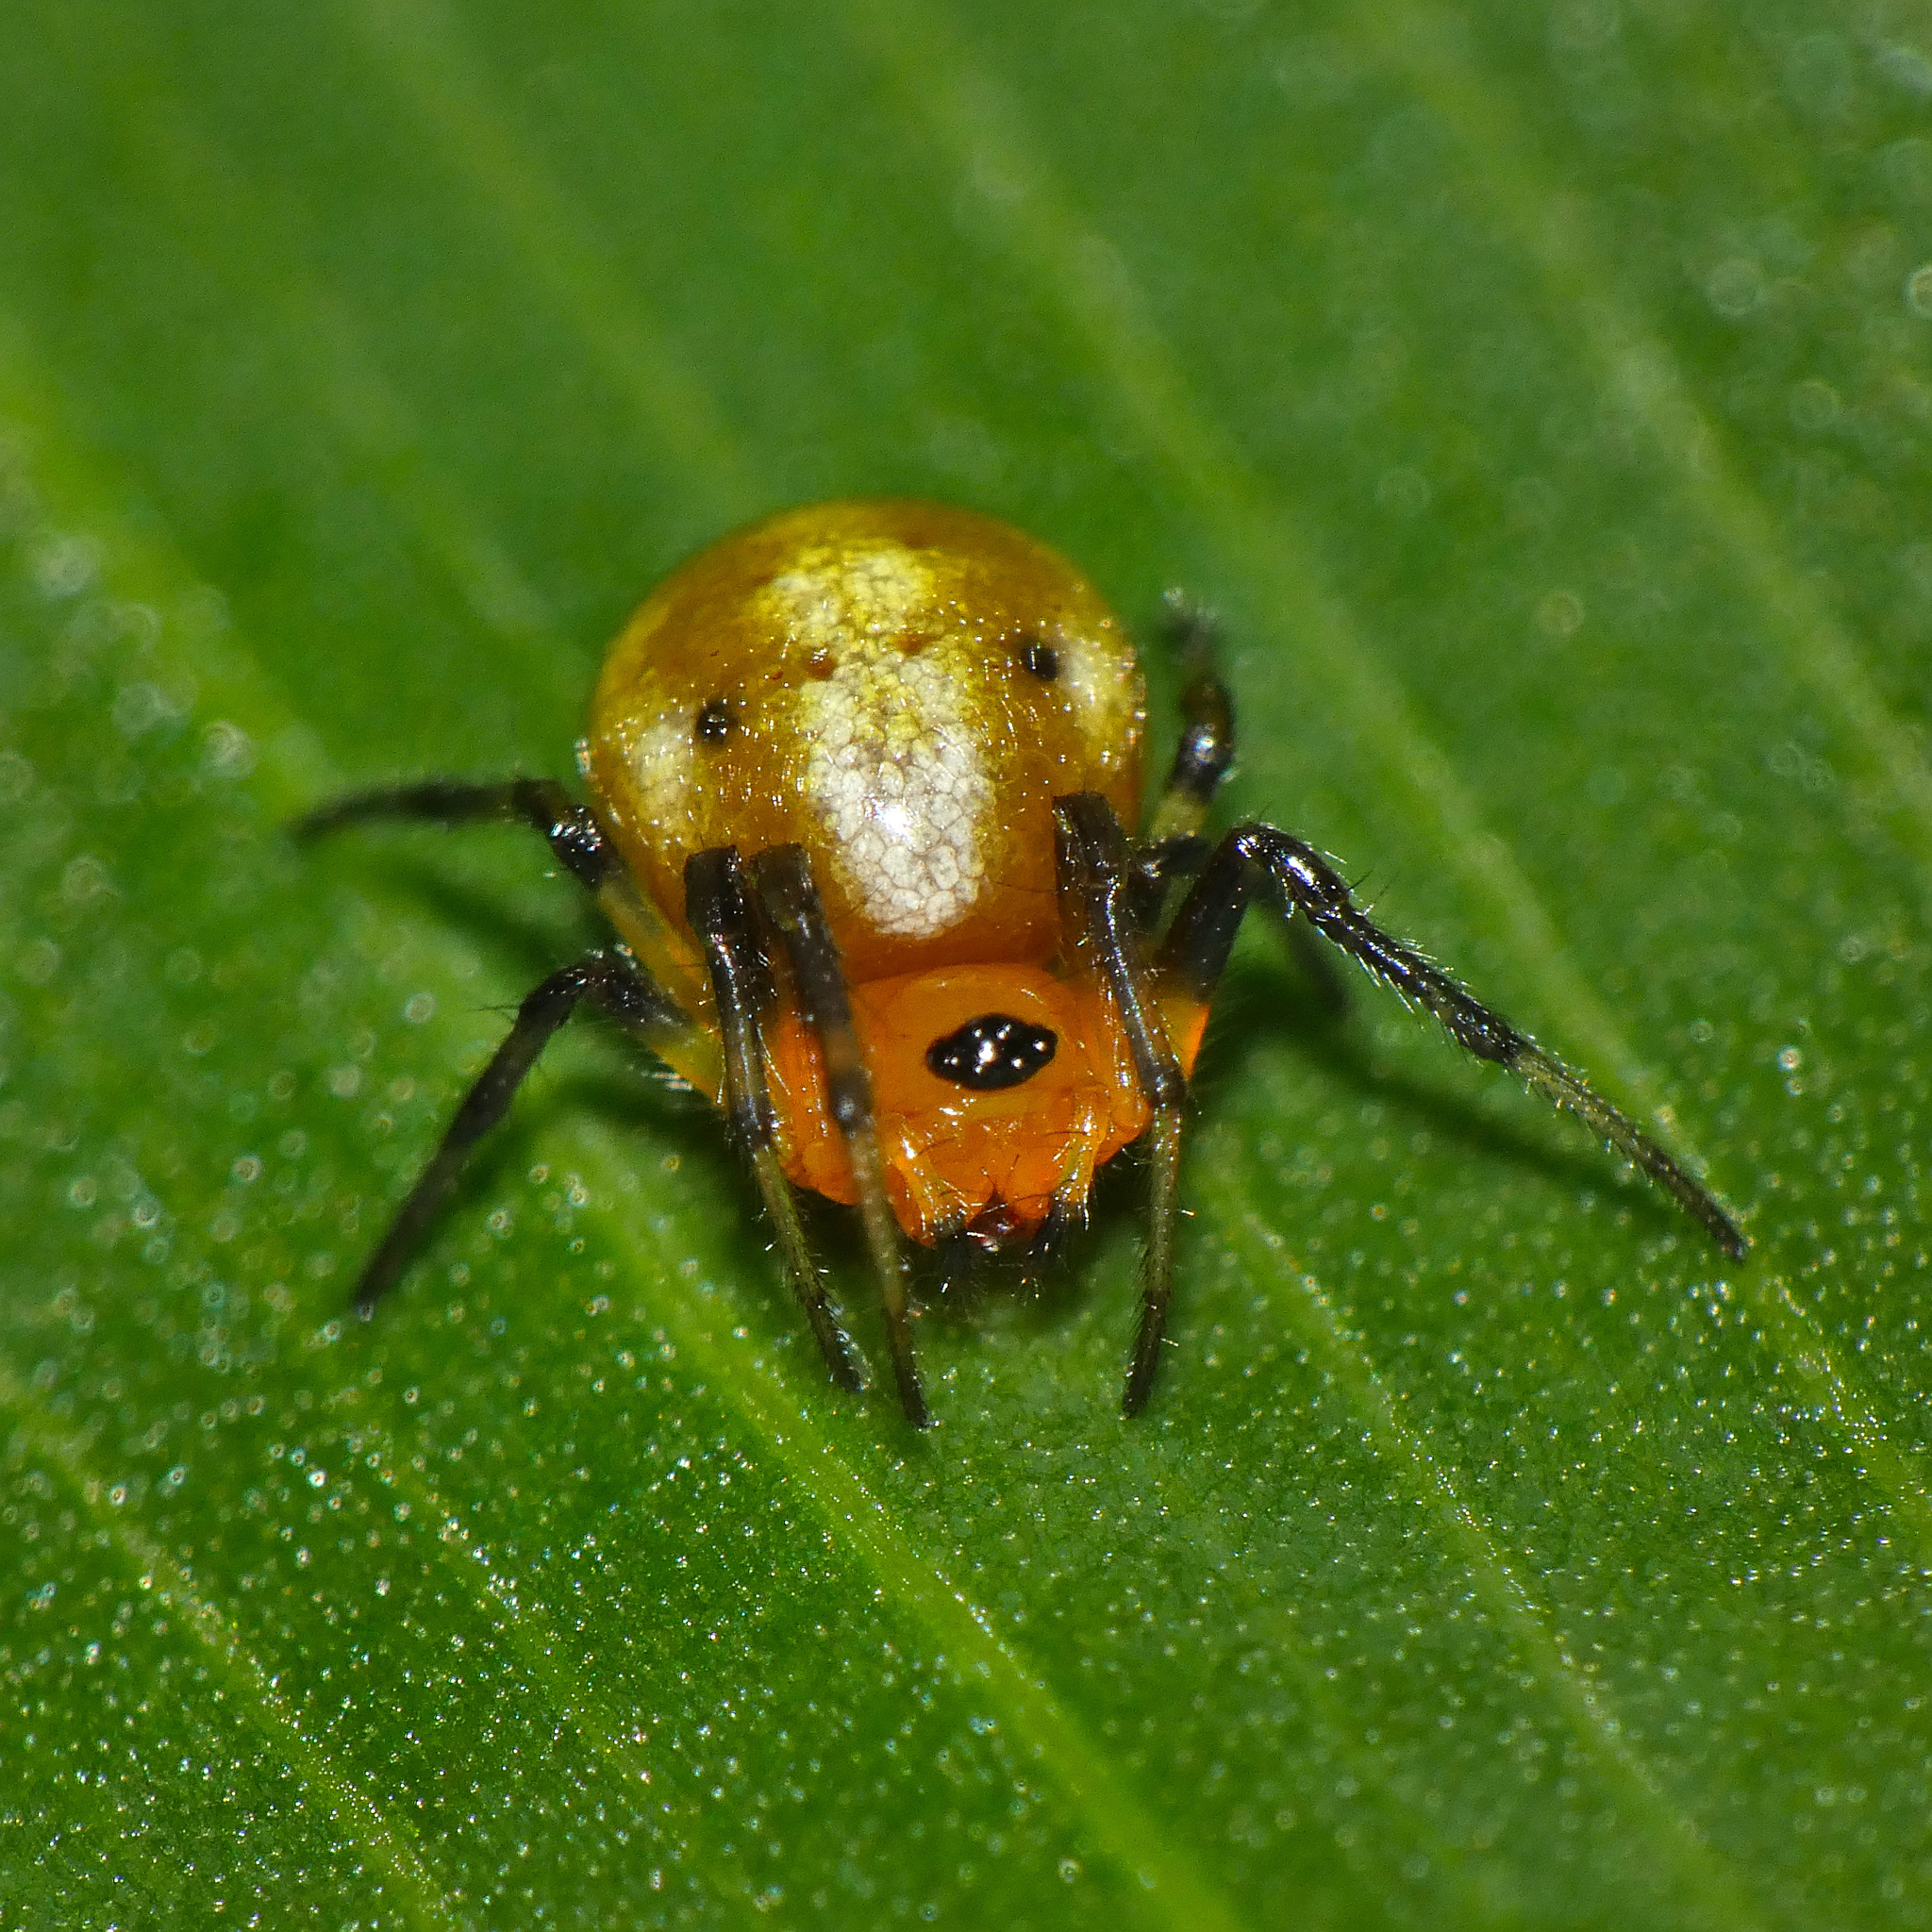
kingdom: Animalia
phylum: Arthropoda
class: Arachnida
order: Araneae
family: Araneidae
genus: Hypsosinga
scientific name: Hypsosinga holzapfelae
